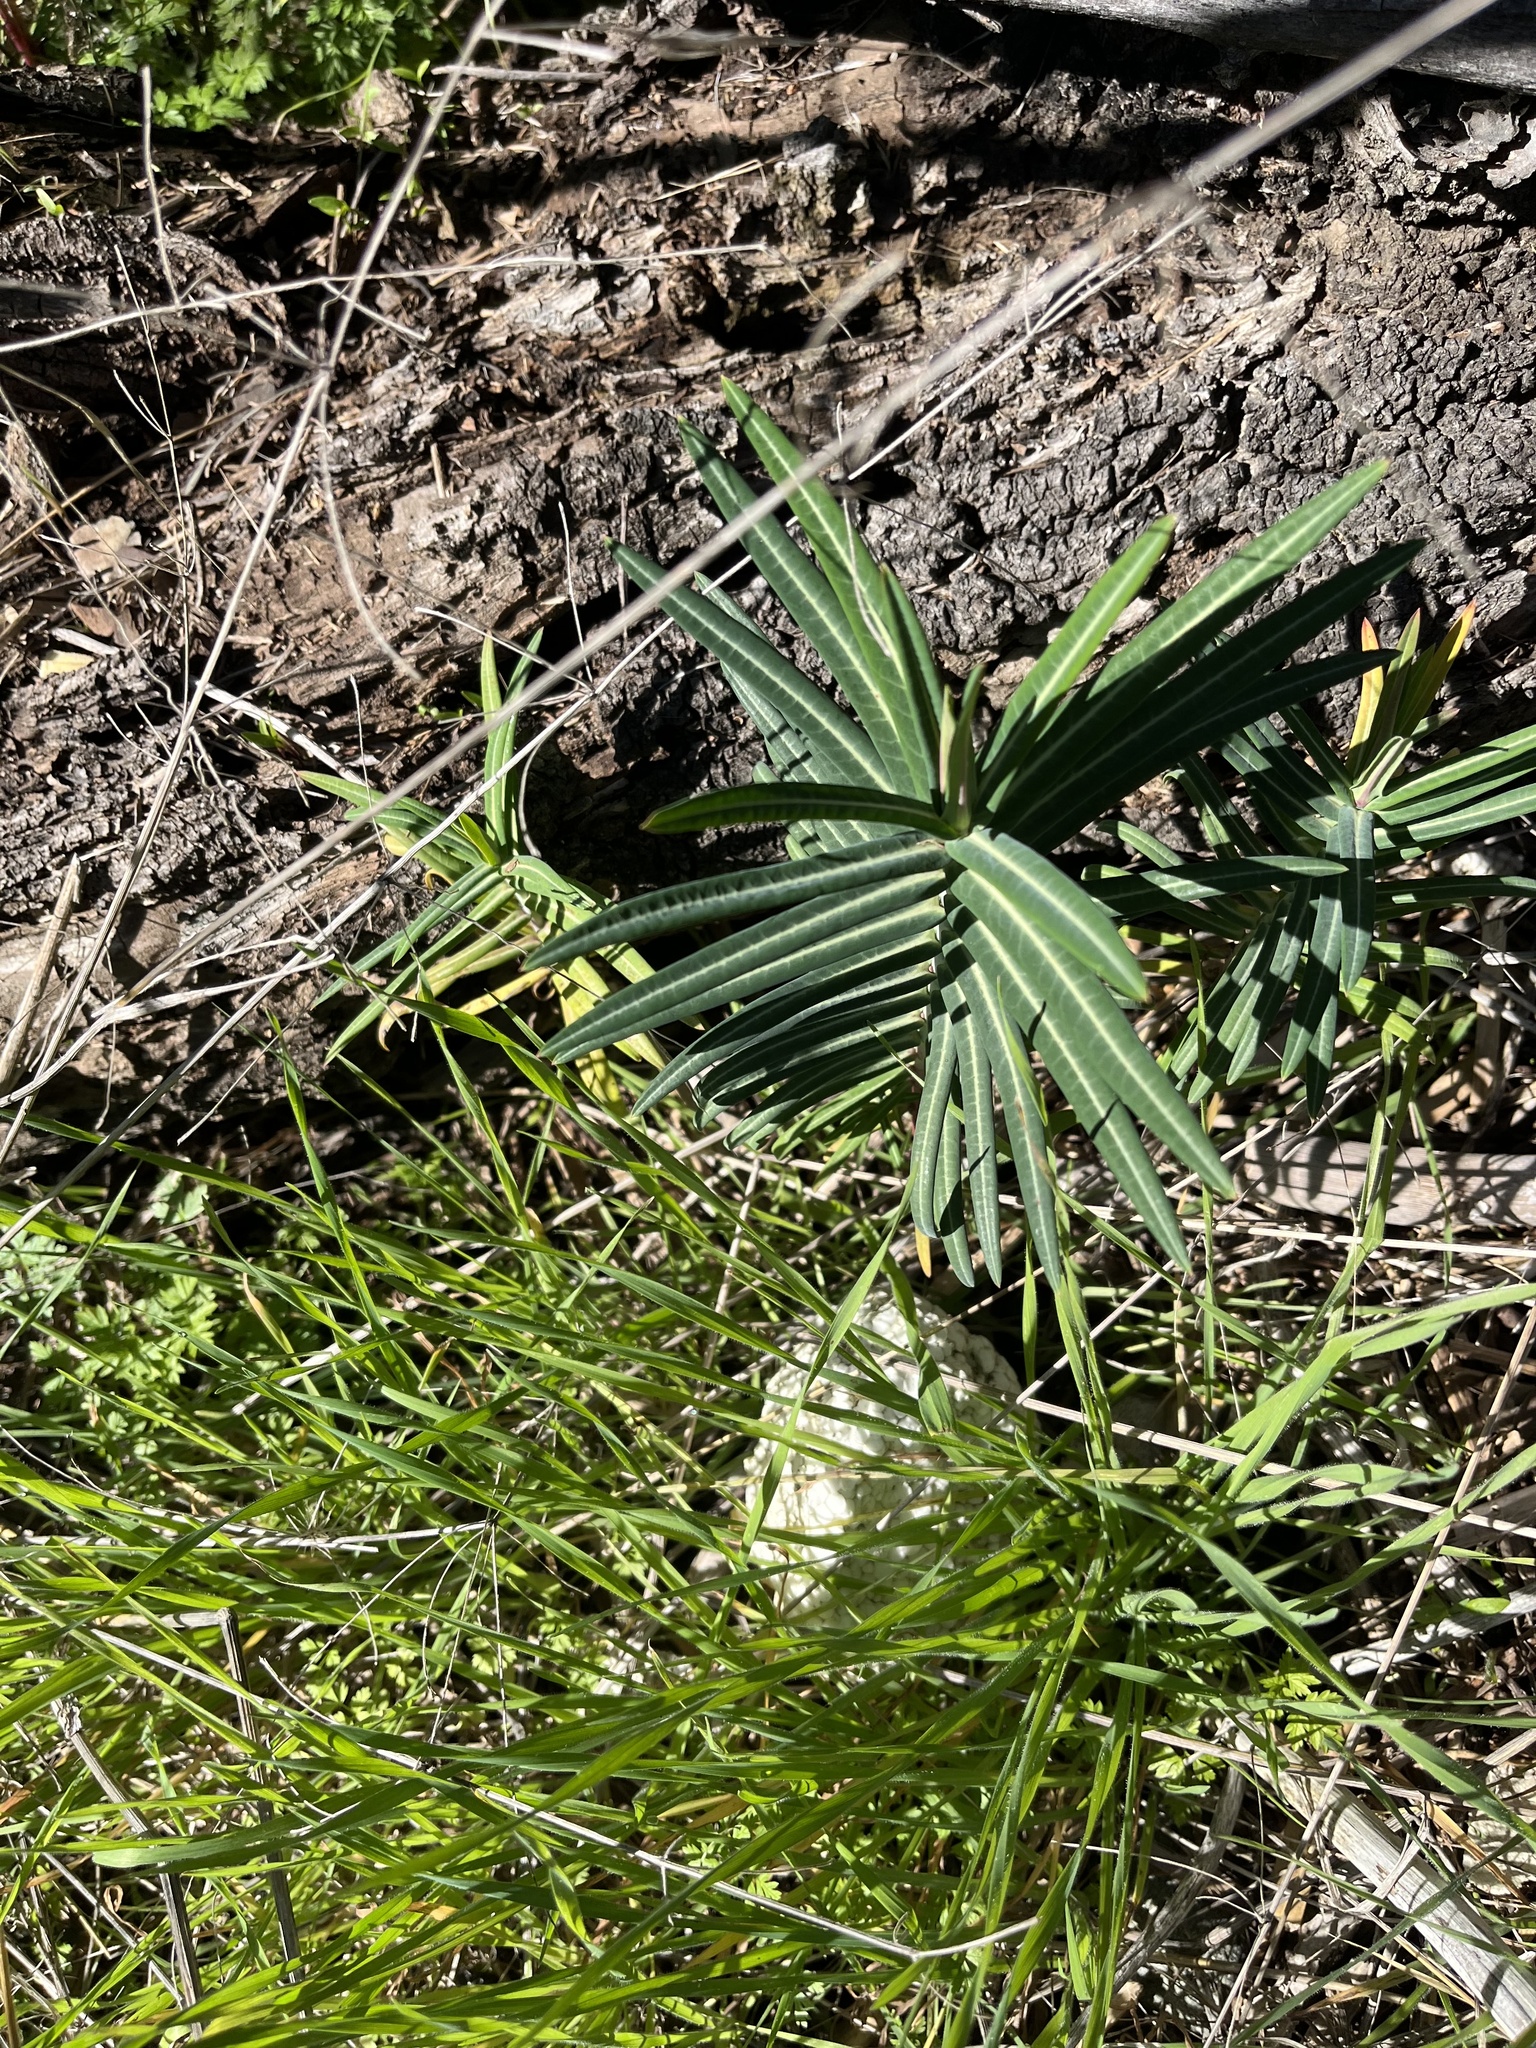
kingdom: Plantae
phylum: Tracheophyta
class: Magnoliopsida
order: Malpighiales
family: Euphorbiaceae
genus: Euphorbia
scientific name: Euphorbia lathyris
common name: Caper spurge
